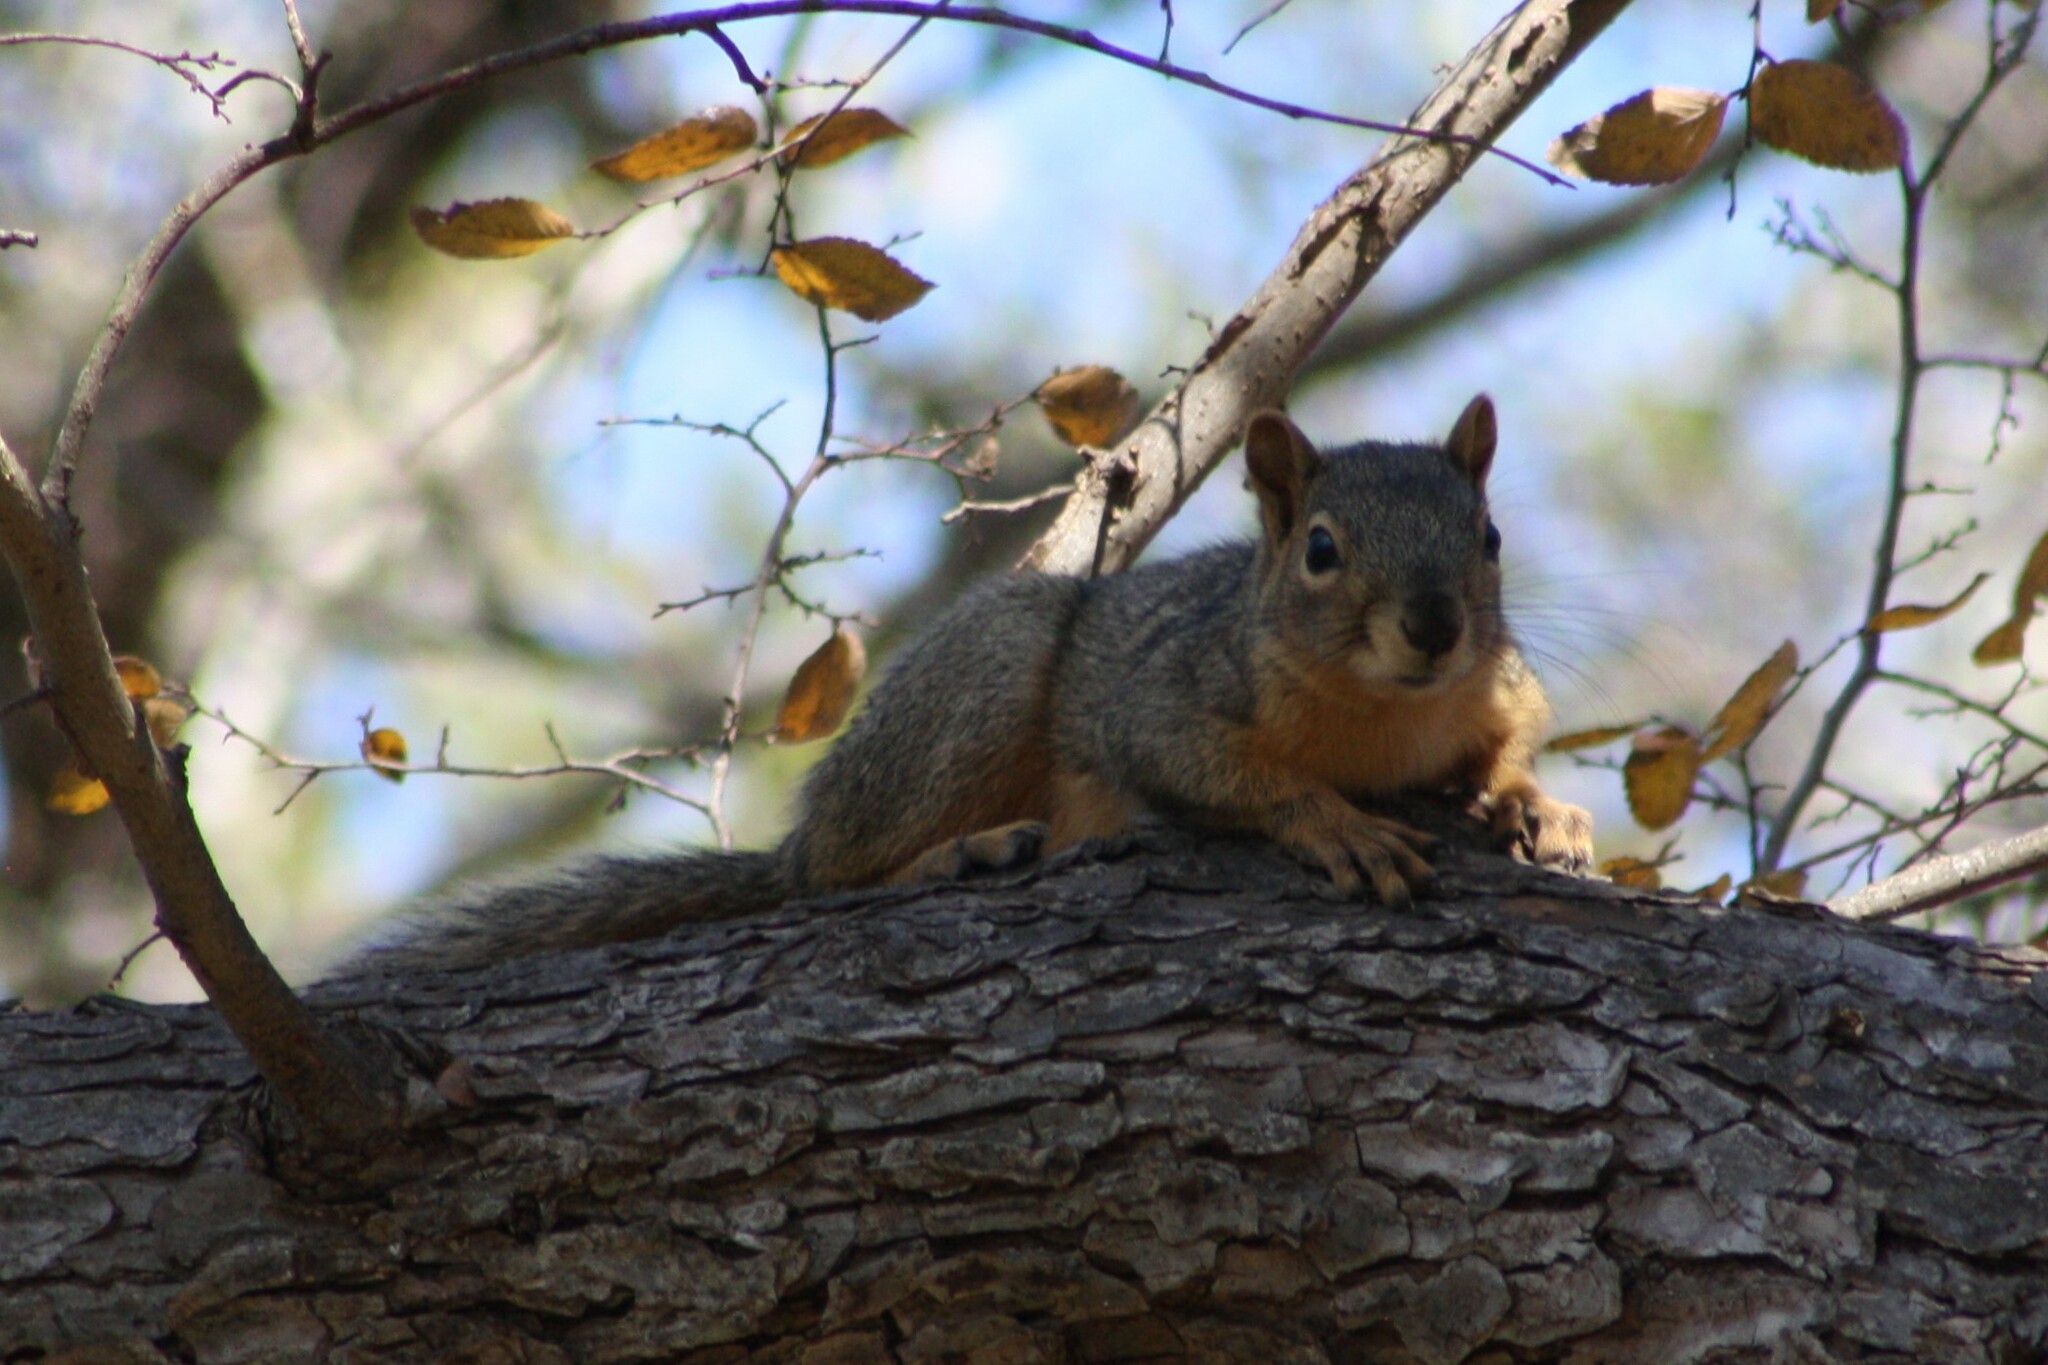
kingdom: Animalia
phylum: Chordata
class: Mammalia
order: Rodentia
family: Sciuridae
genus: Sciurus
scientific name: Sciurus niger
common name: Fox squirrel
